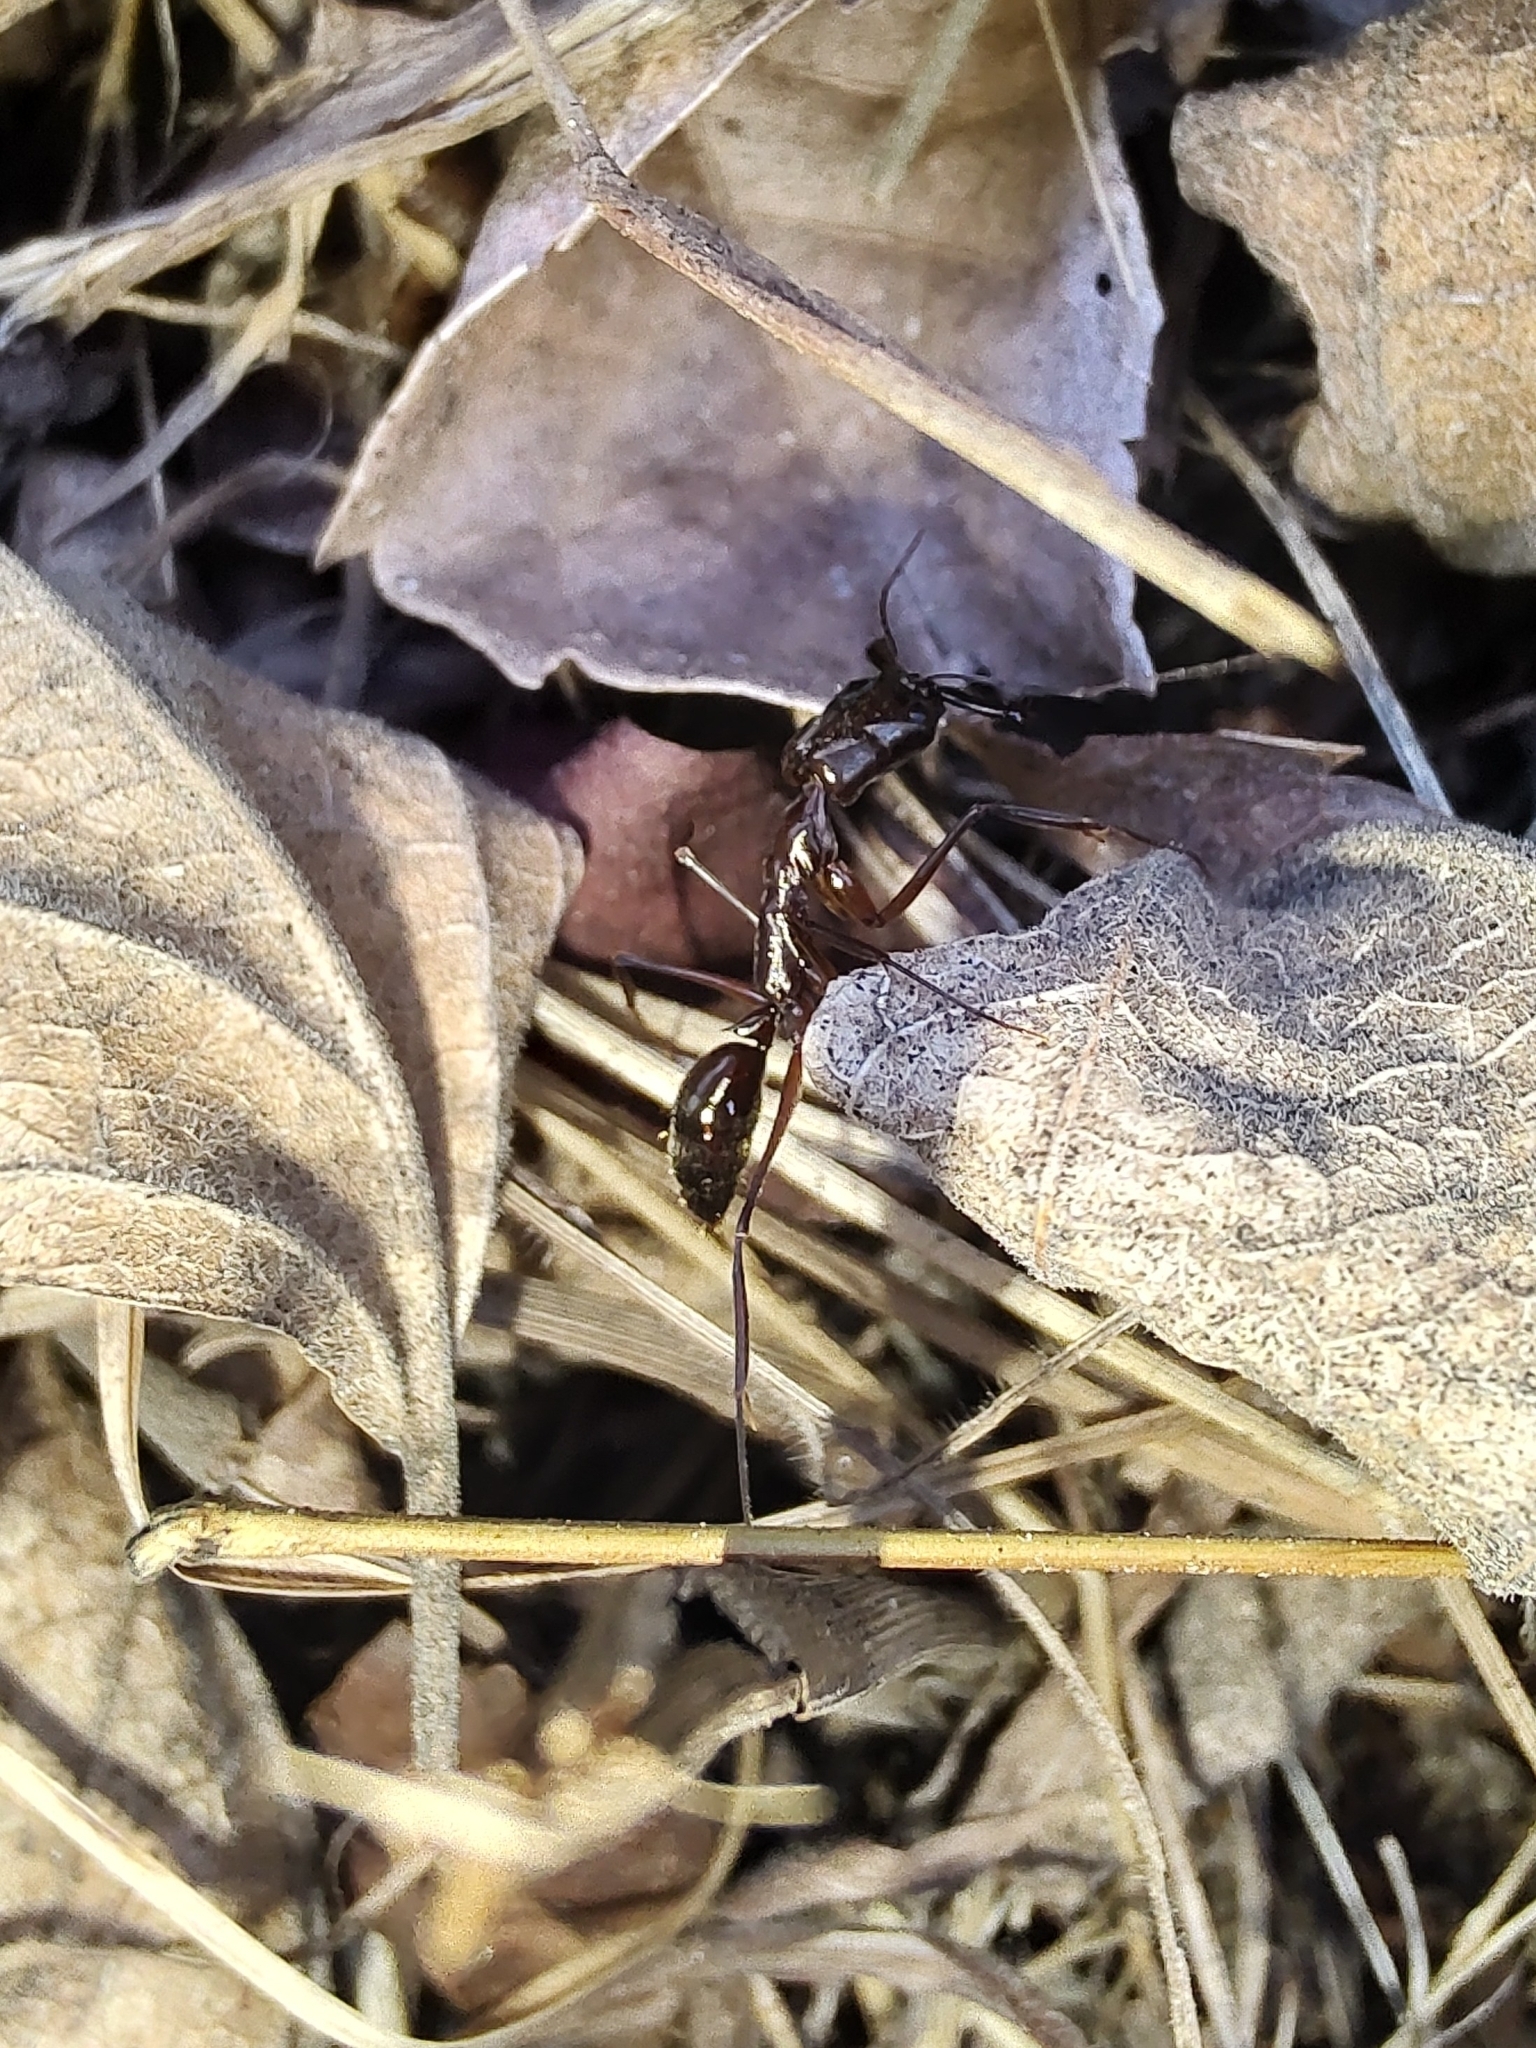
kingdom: Animalia
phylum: Arthropoda
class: Insecta
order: Hymenoptera
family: Formicidae
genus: Odontomachus
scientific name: Odontomachus chelifer
